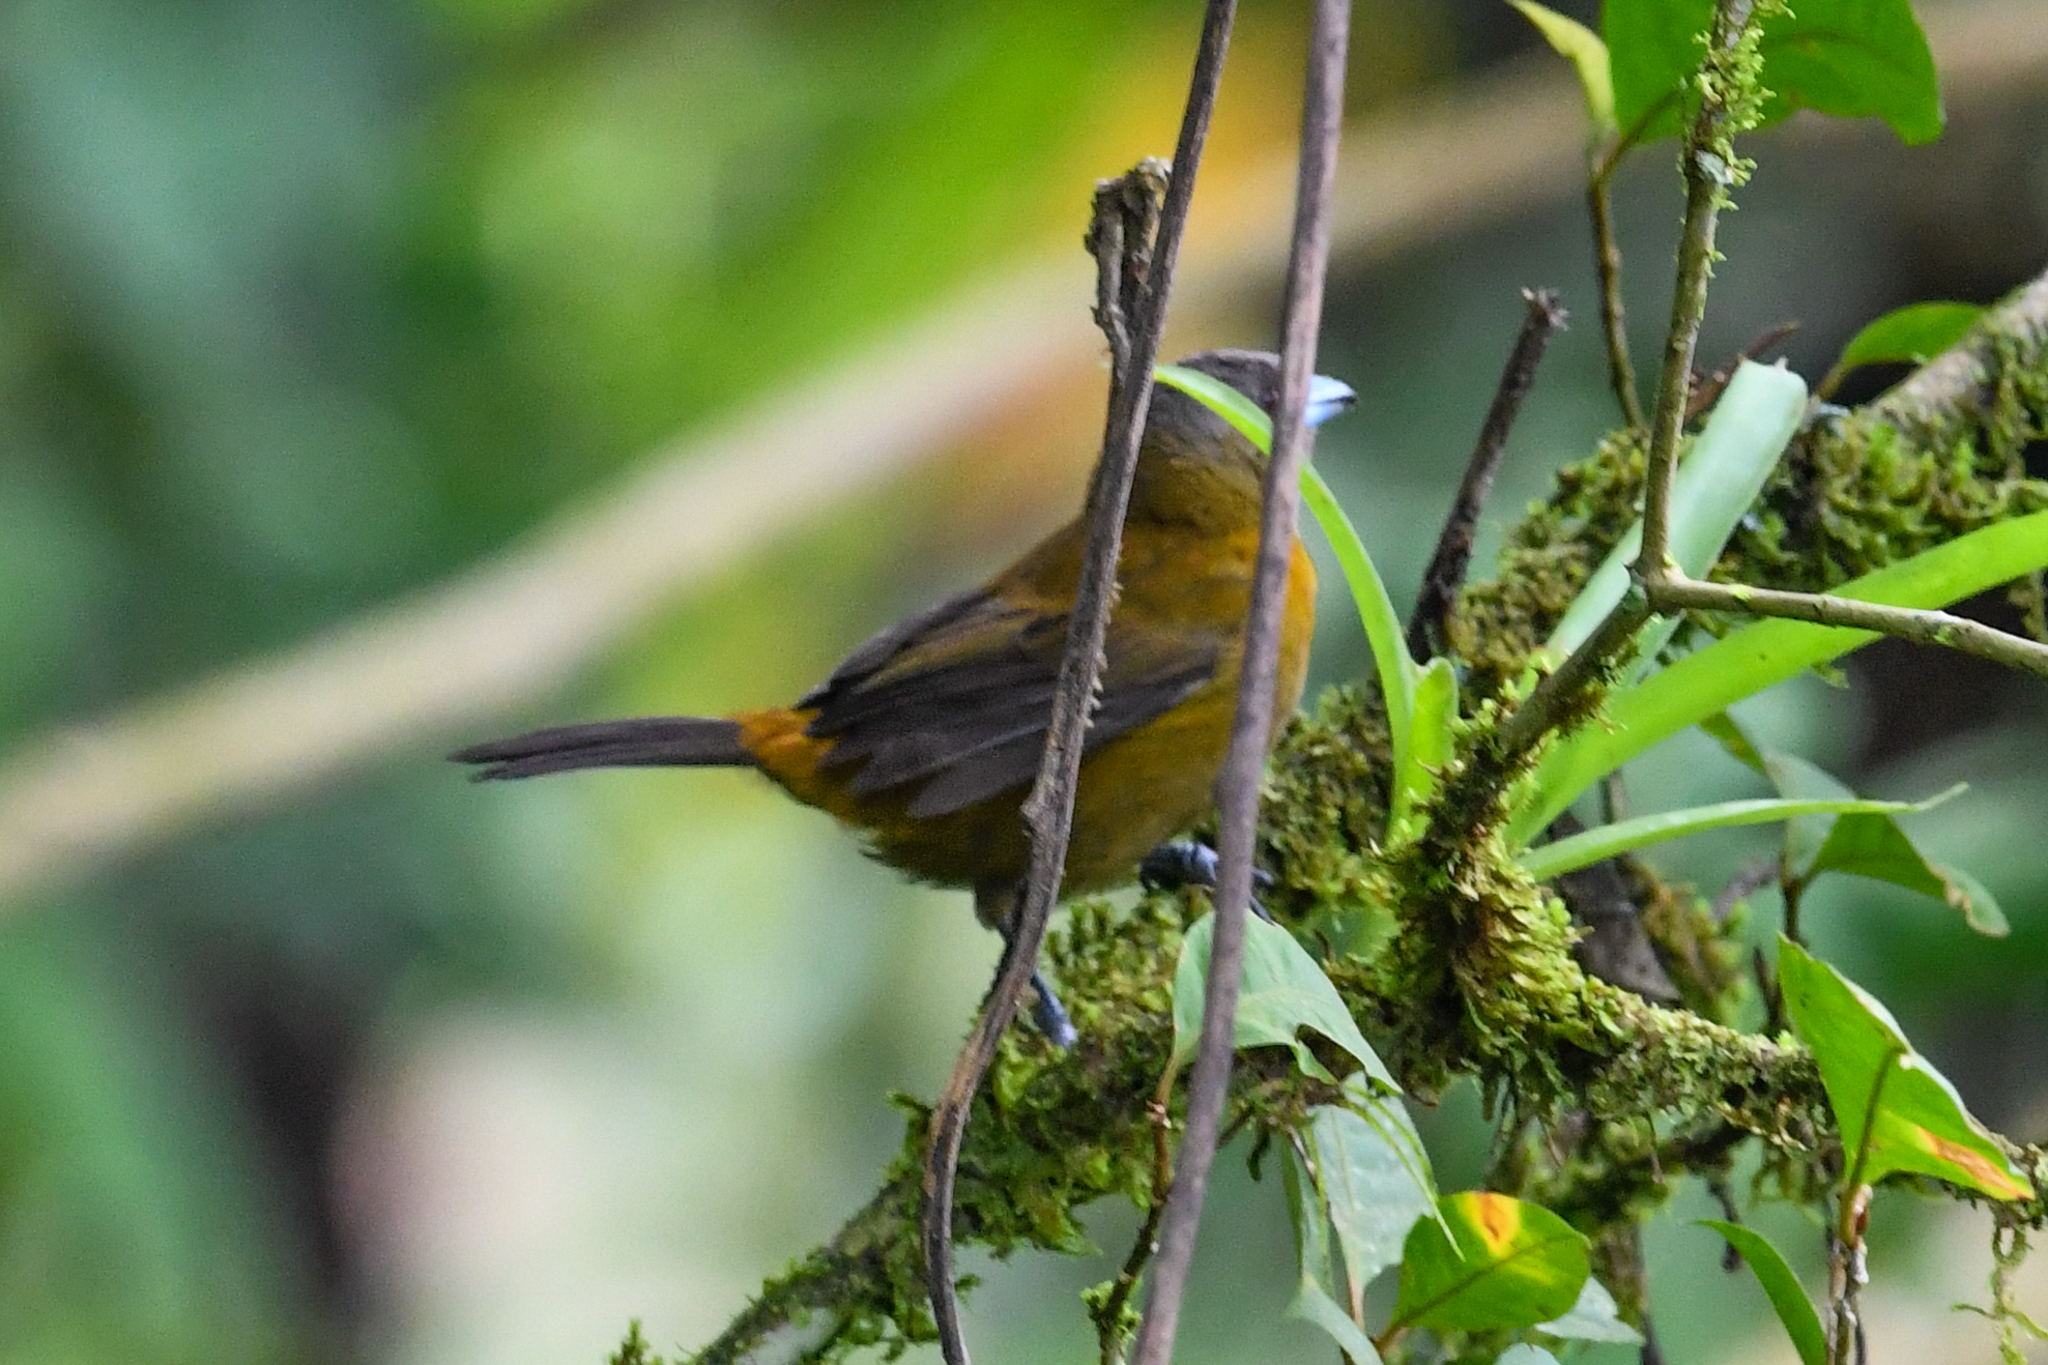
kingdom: Animalia
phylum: Chordata
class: Aves
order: Passeriformes
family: Thraupidae
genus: Ramphocelus
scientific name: Ramphocelus passerinii
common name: Passerini's tanager
